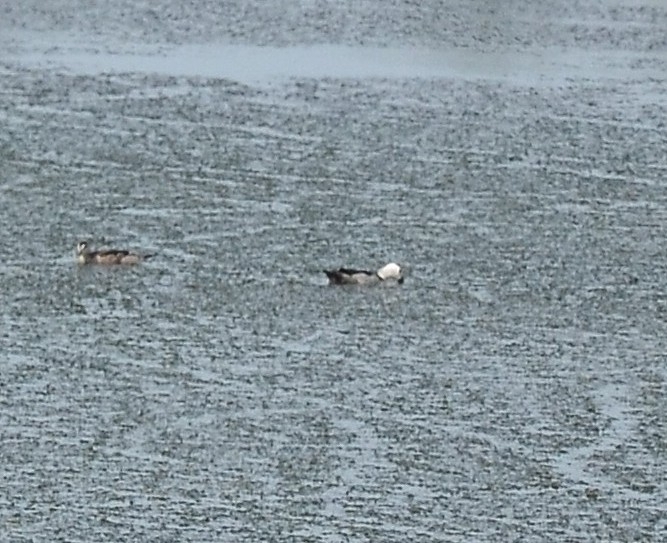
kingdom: Animalia
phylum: Chordata
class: Aves
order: Anseriformes
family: Anatidae
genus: Nettapus
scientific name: Nettapus coromandelianus
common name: Cotton pygmy-goose
